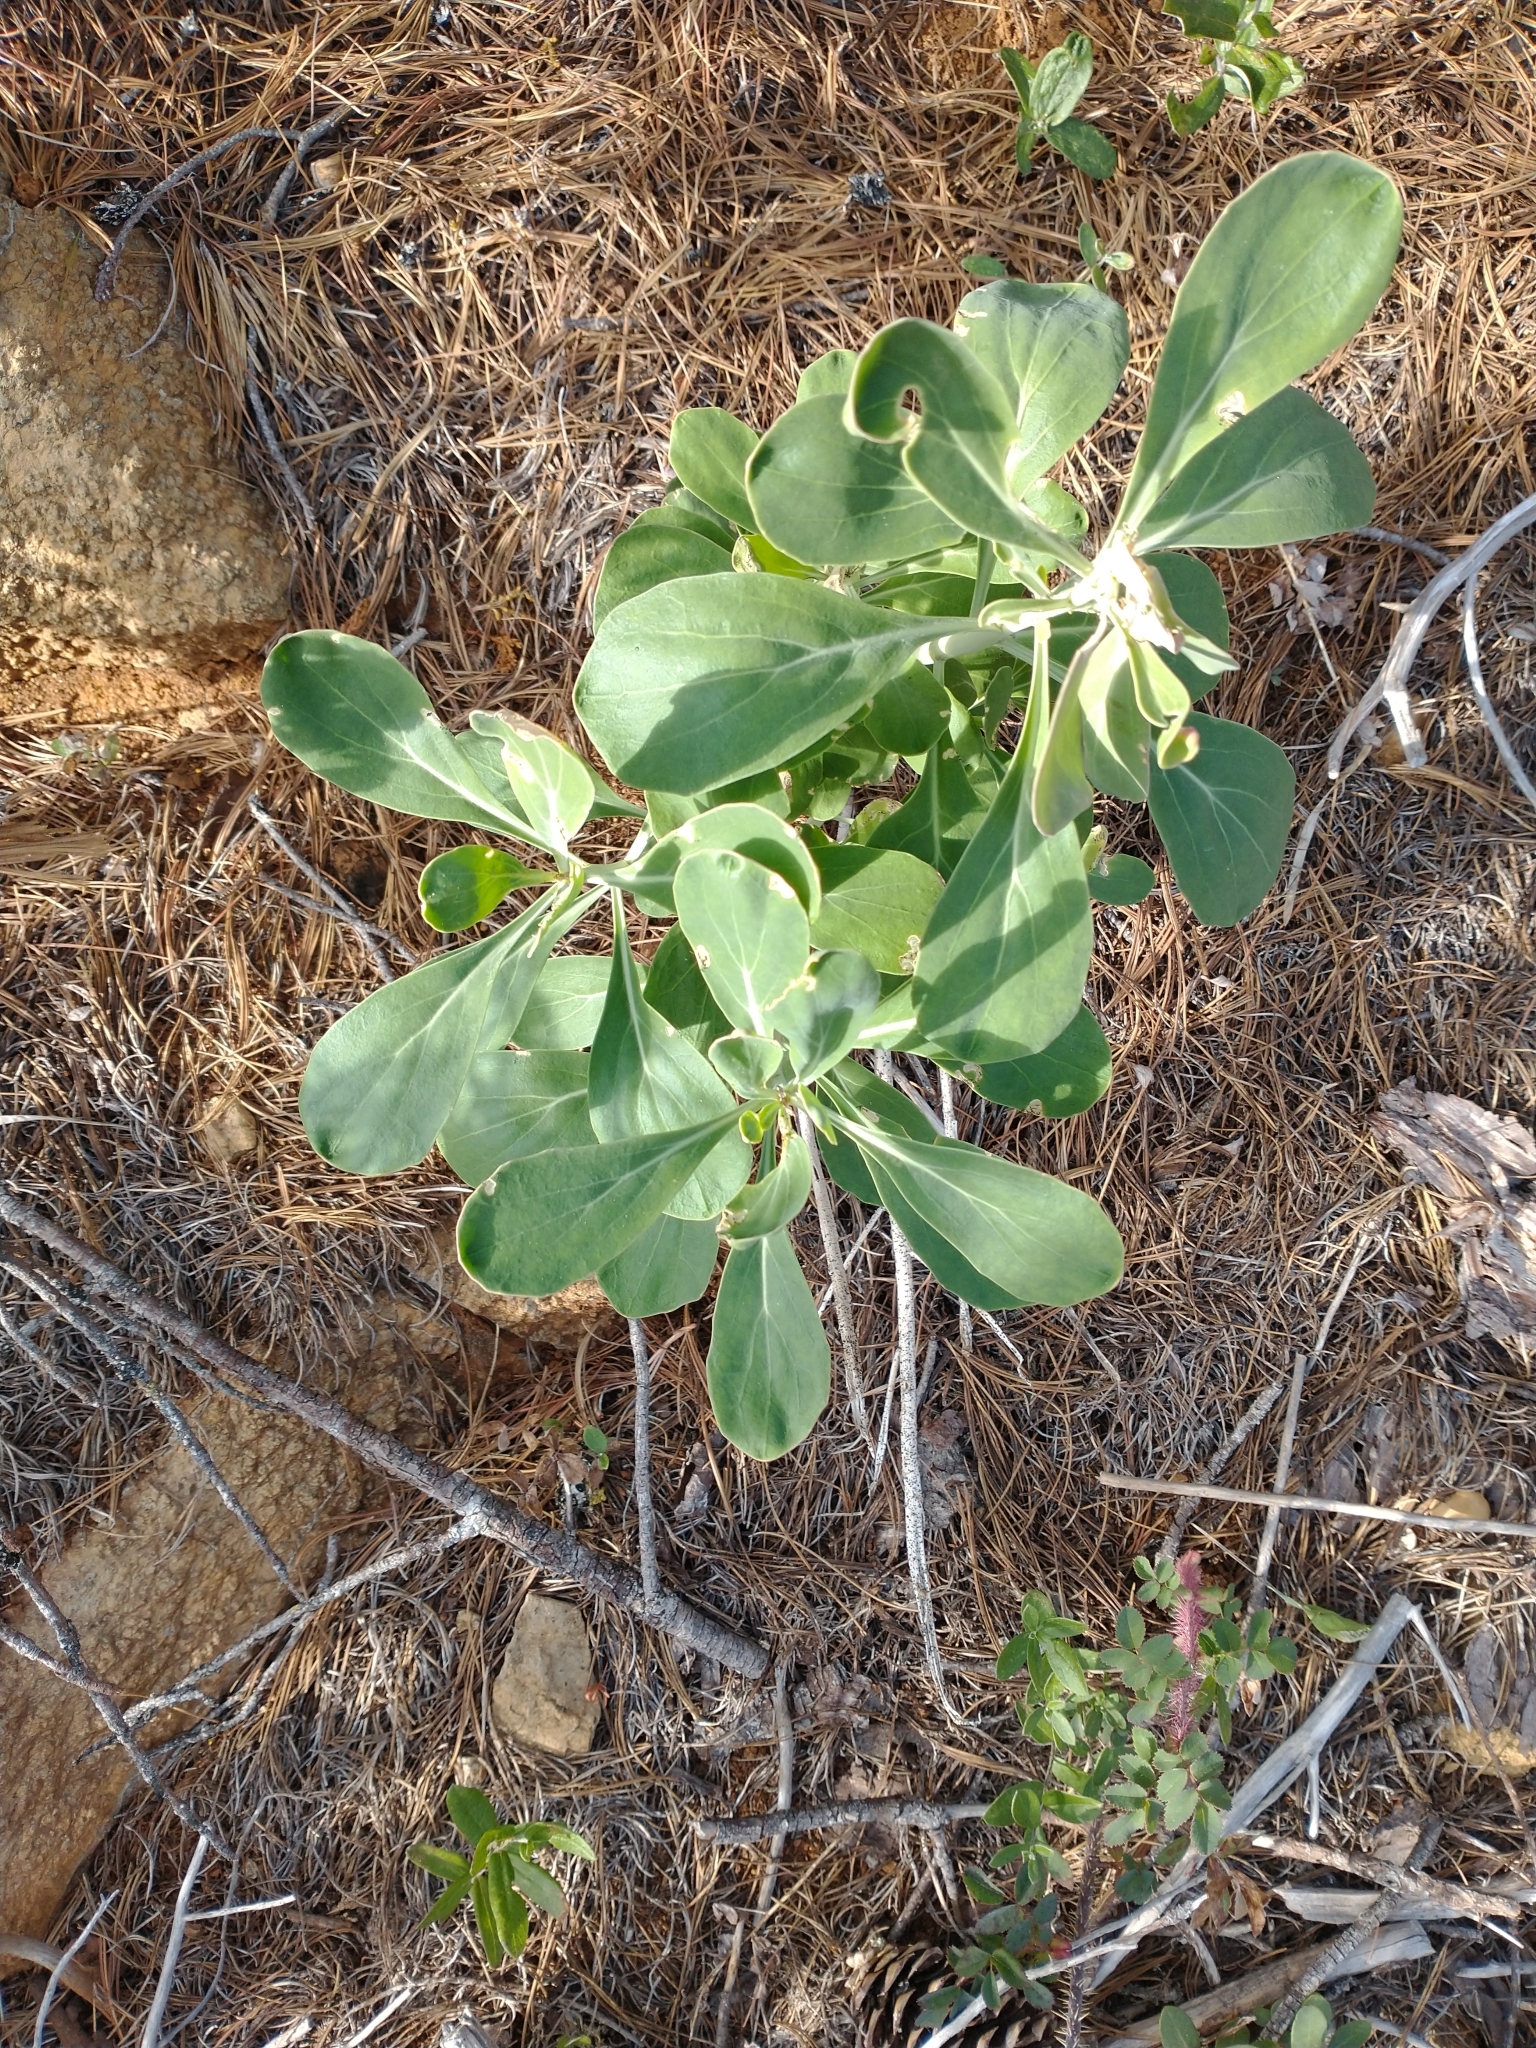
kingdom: Plantae
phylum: Tracheophyta
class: Magnoliopsida
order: Brassicales
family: Brassicaceae
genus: Streptanthus
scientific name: Streptanthus howellii
